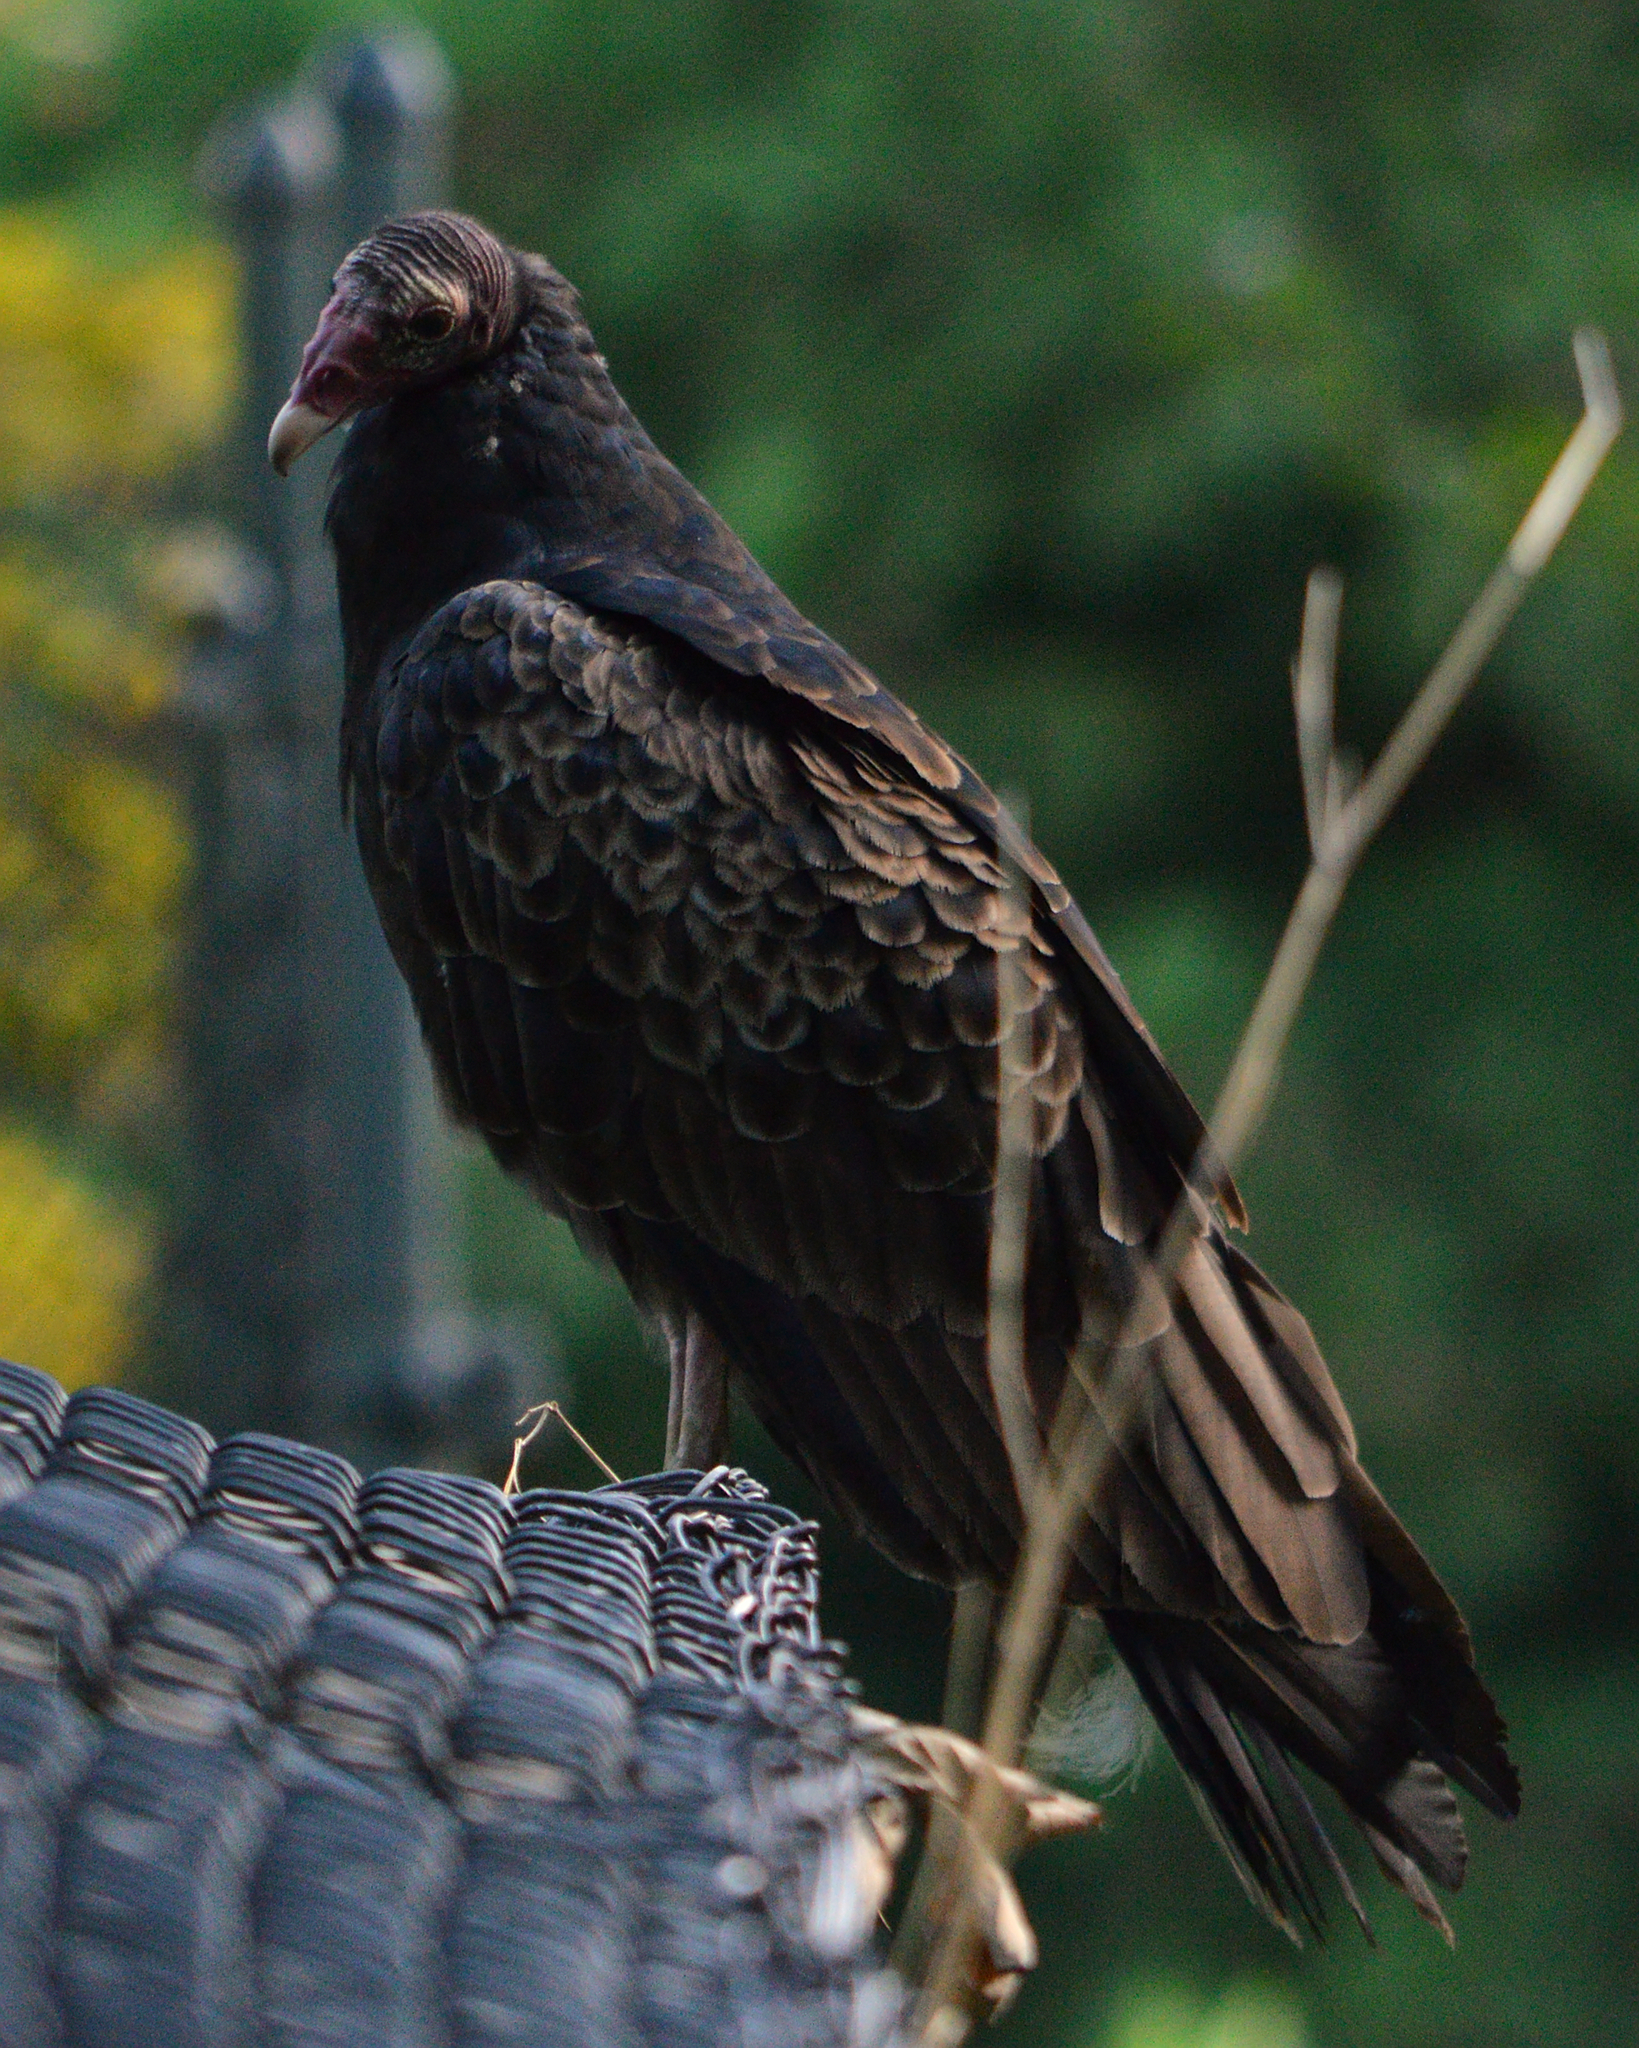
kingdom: Animalia
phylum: Chordata
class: Aves
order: Accipitriformes
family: Cathartidae
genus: Cathartes
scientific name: Cathartes aura
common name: Turkey vulture
